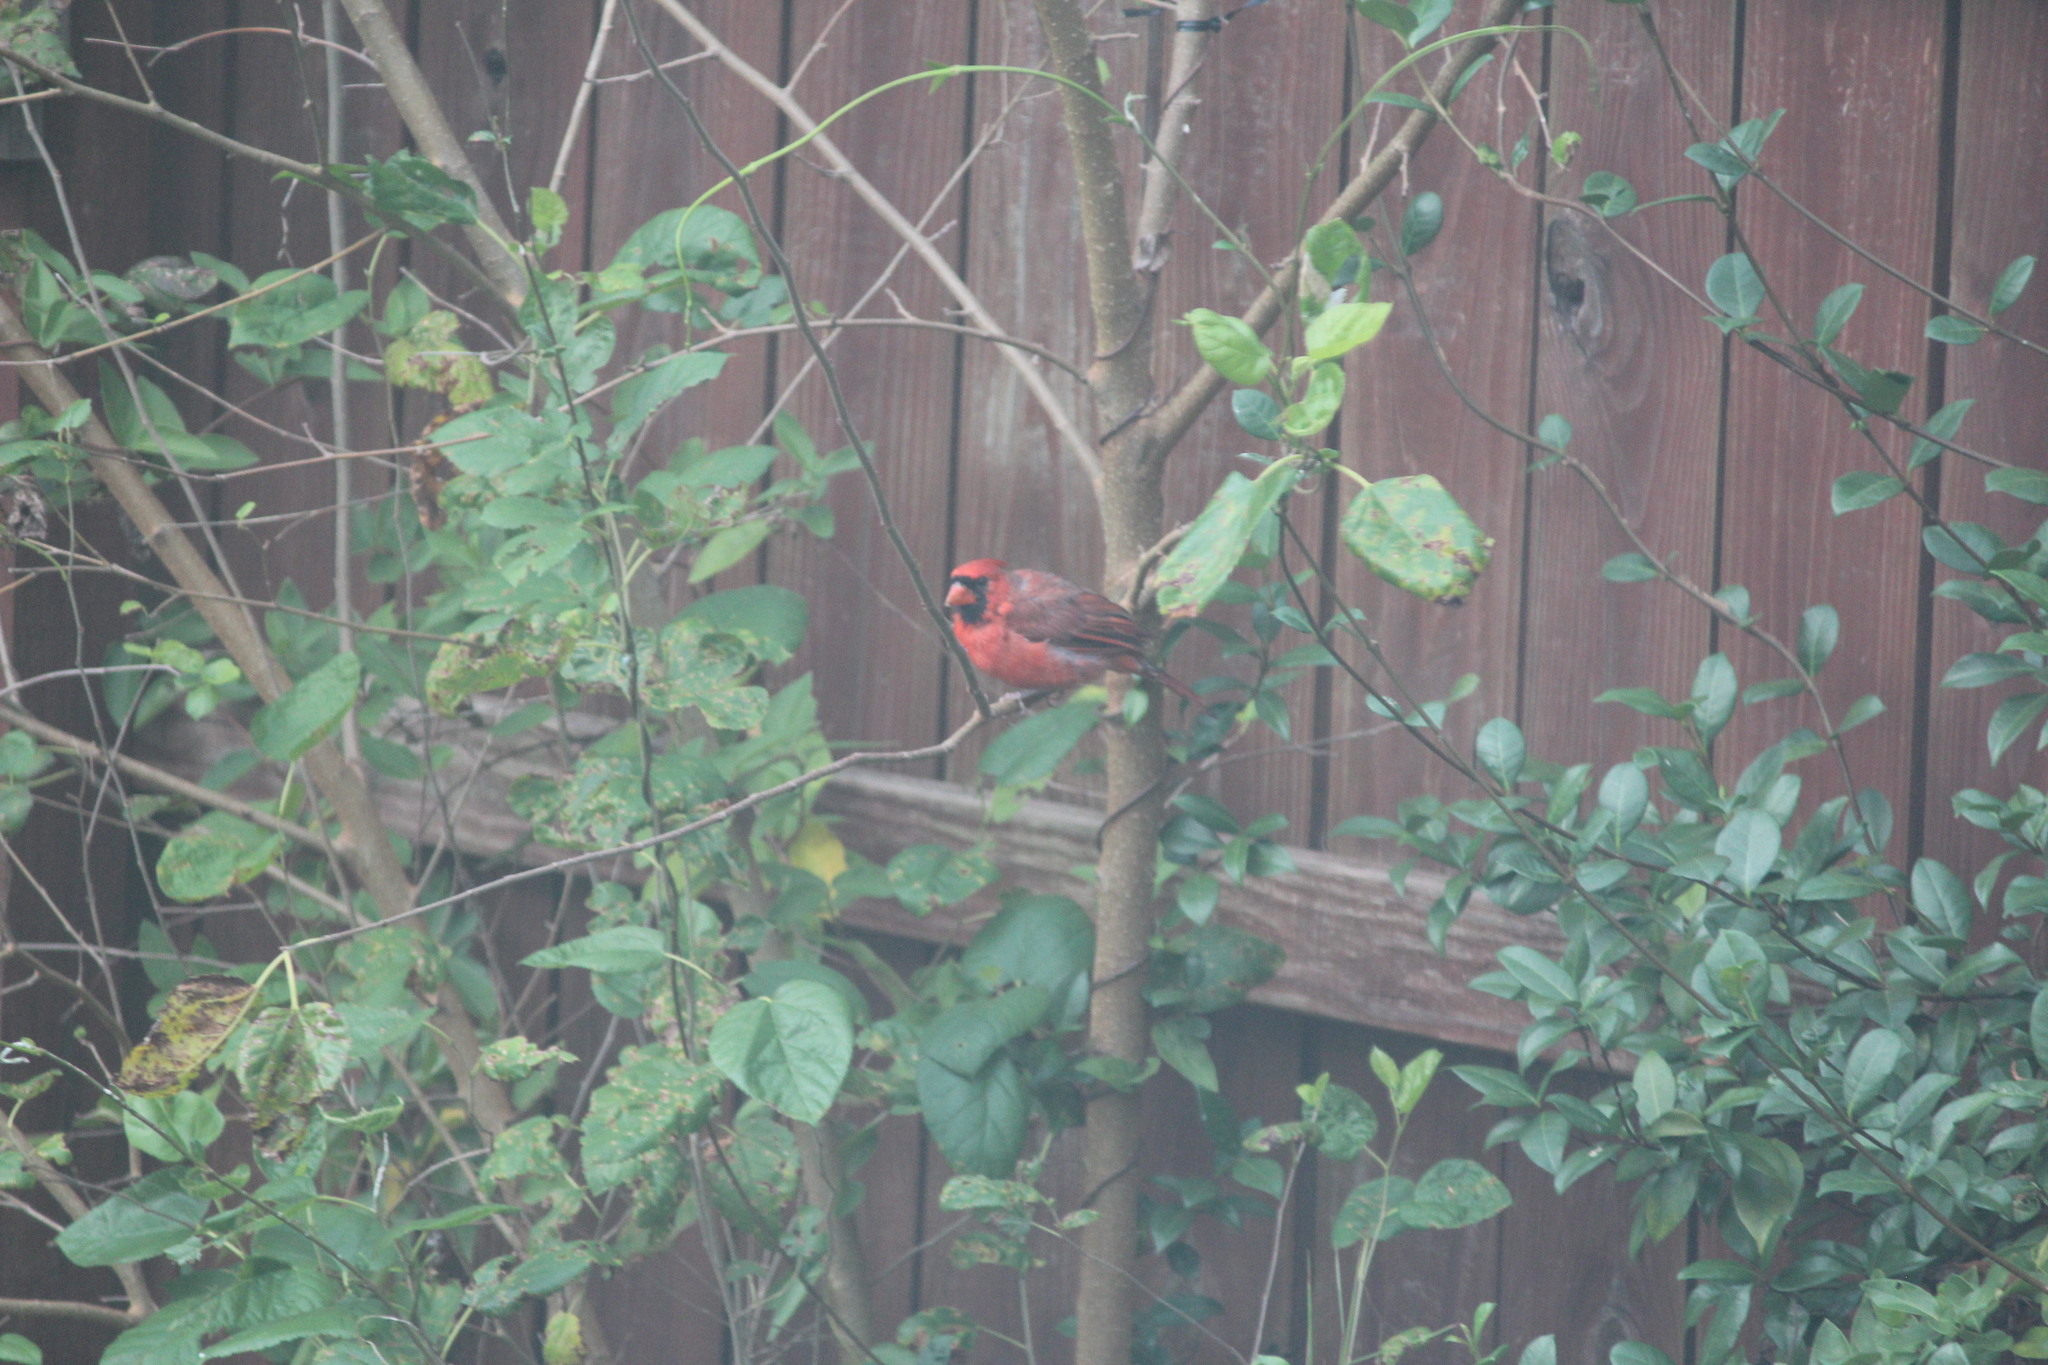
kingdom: Animalia
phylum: Chordata
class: Aves
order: Passeriformes
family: Cardinalidae
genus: Cardinalis
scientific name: Cardinalis cardinalis
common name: Northern cardinal
